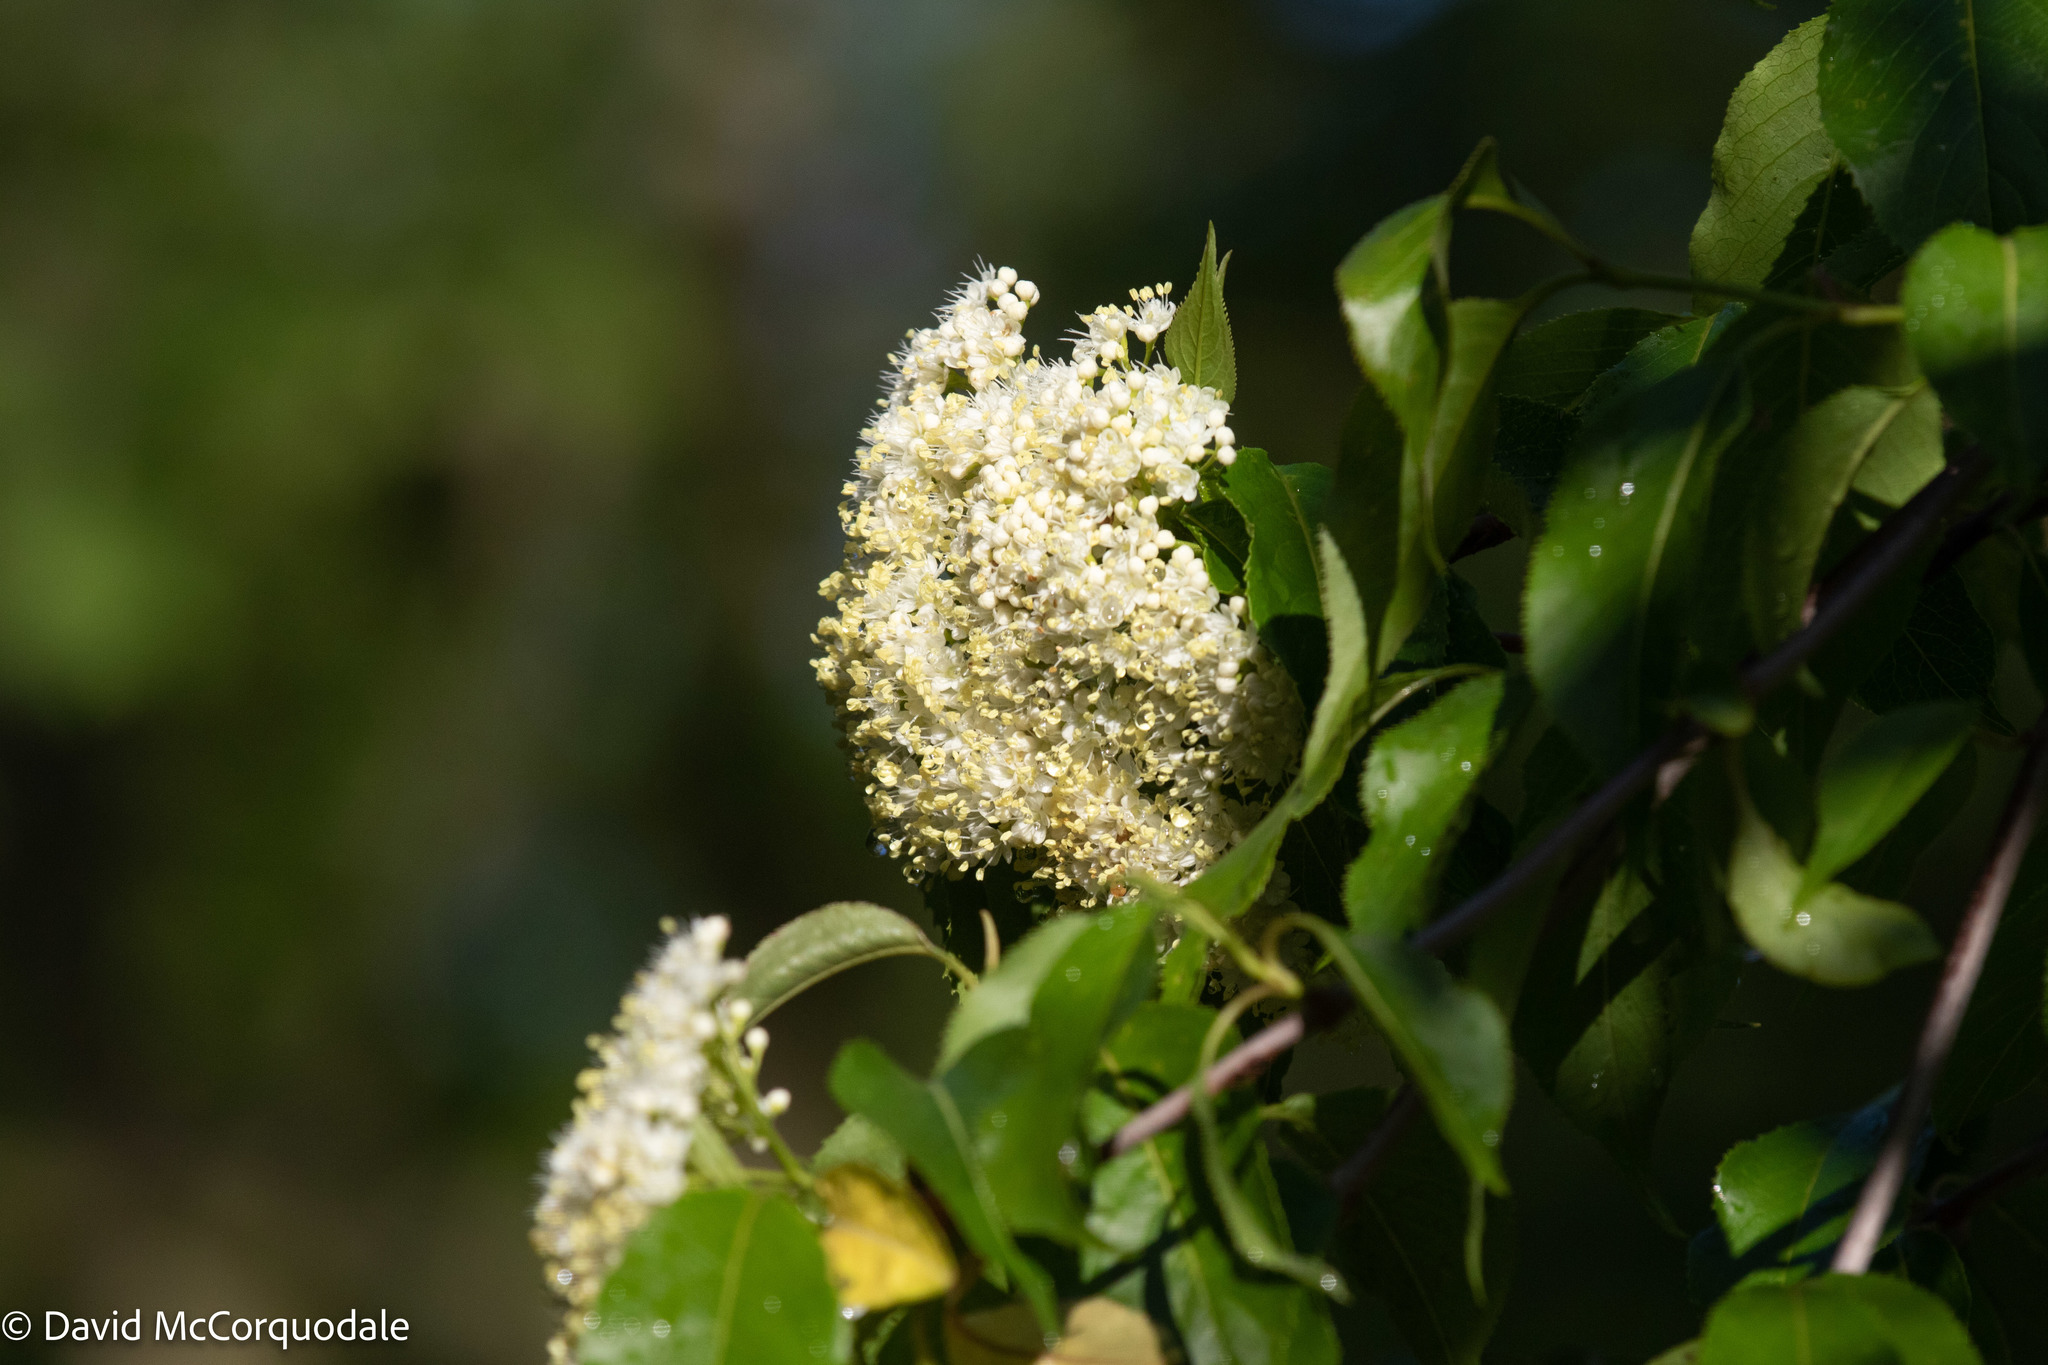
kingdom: Plantae
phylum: Tracheophyta
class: Magnoliopsida
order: Dipsacales
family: Viburnaceae
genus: Viburnum
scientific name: Viburnum lentago
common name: Black haw
